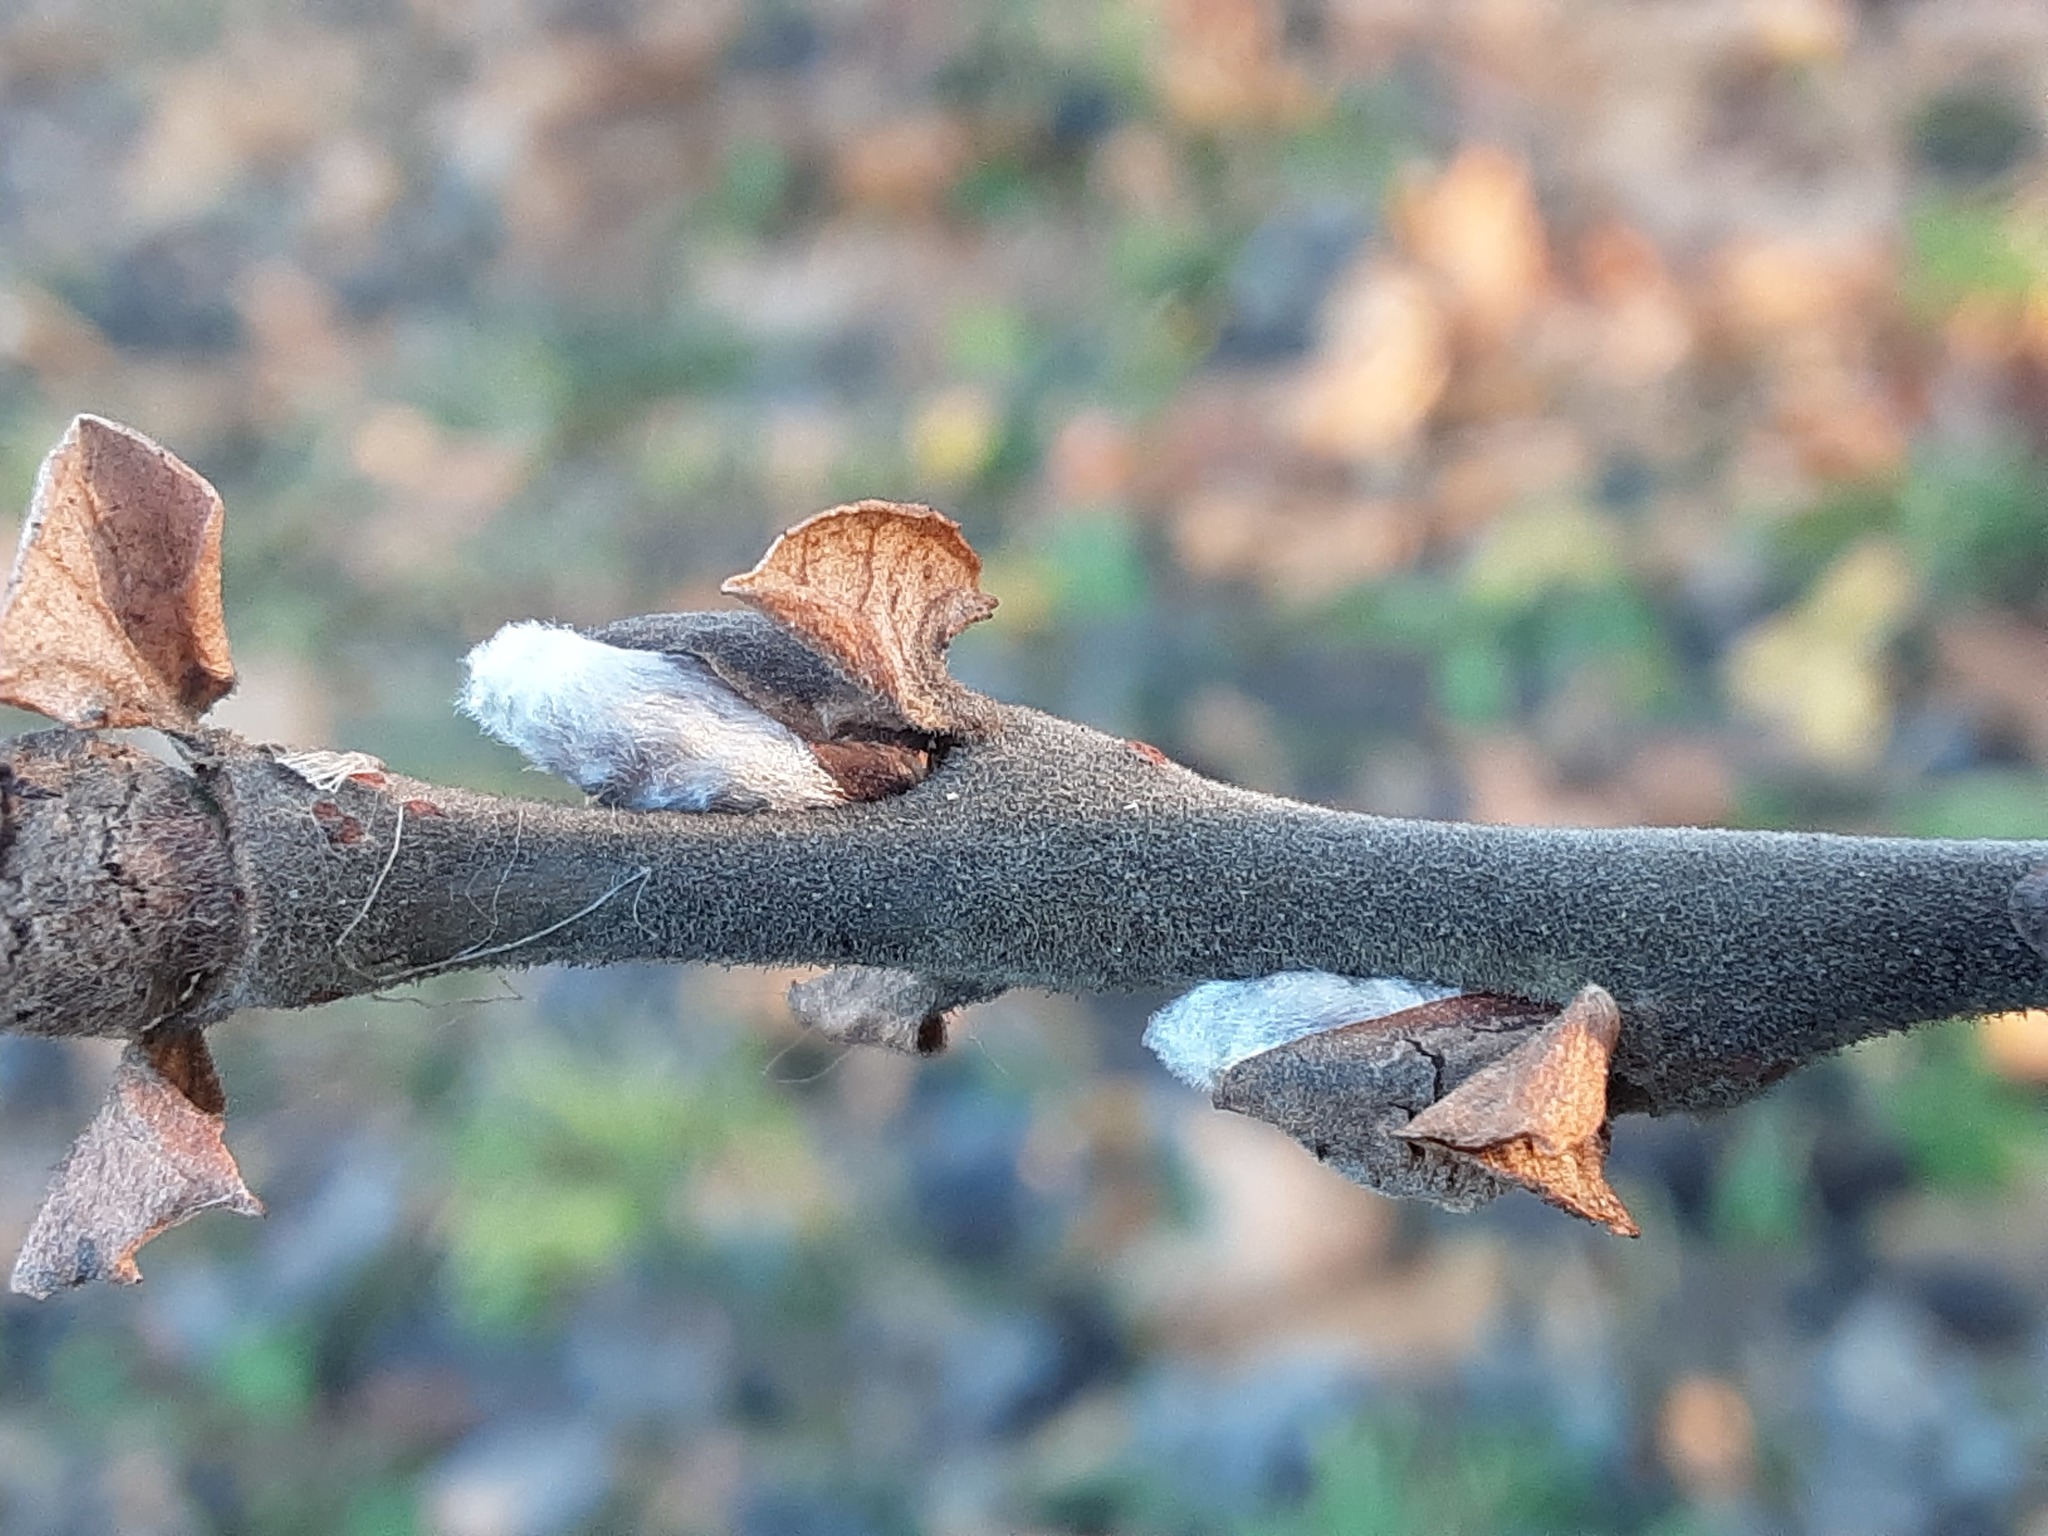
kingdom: Plantae
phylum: Tracheophyta
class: Magnoliopsida
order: Malpighiales
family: Salicaceae
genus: Salix
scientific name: Salix cinerea
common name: Common sallow
